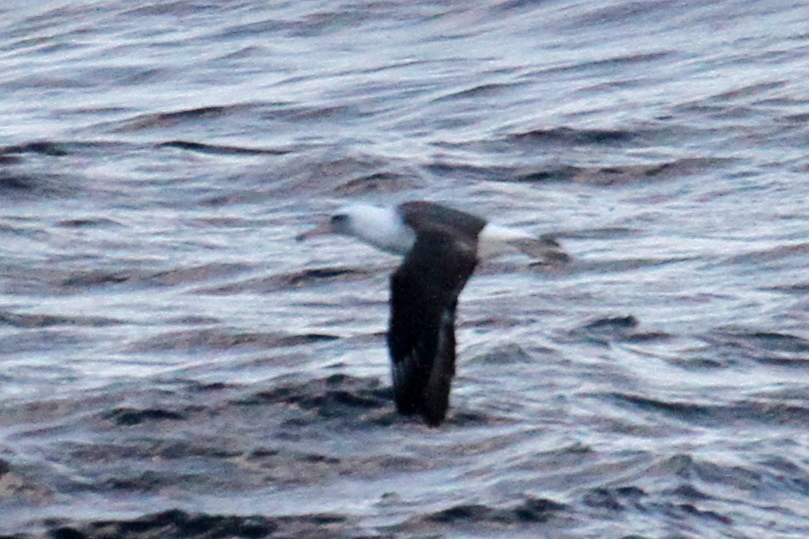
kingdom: Animalia
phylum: Chordata
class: Aves
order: Procellariiformes
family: Diomedeidae
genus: Phoebastria
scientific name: Phoebastria immutabilis
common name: Laysan albatross
